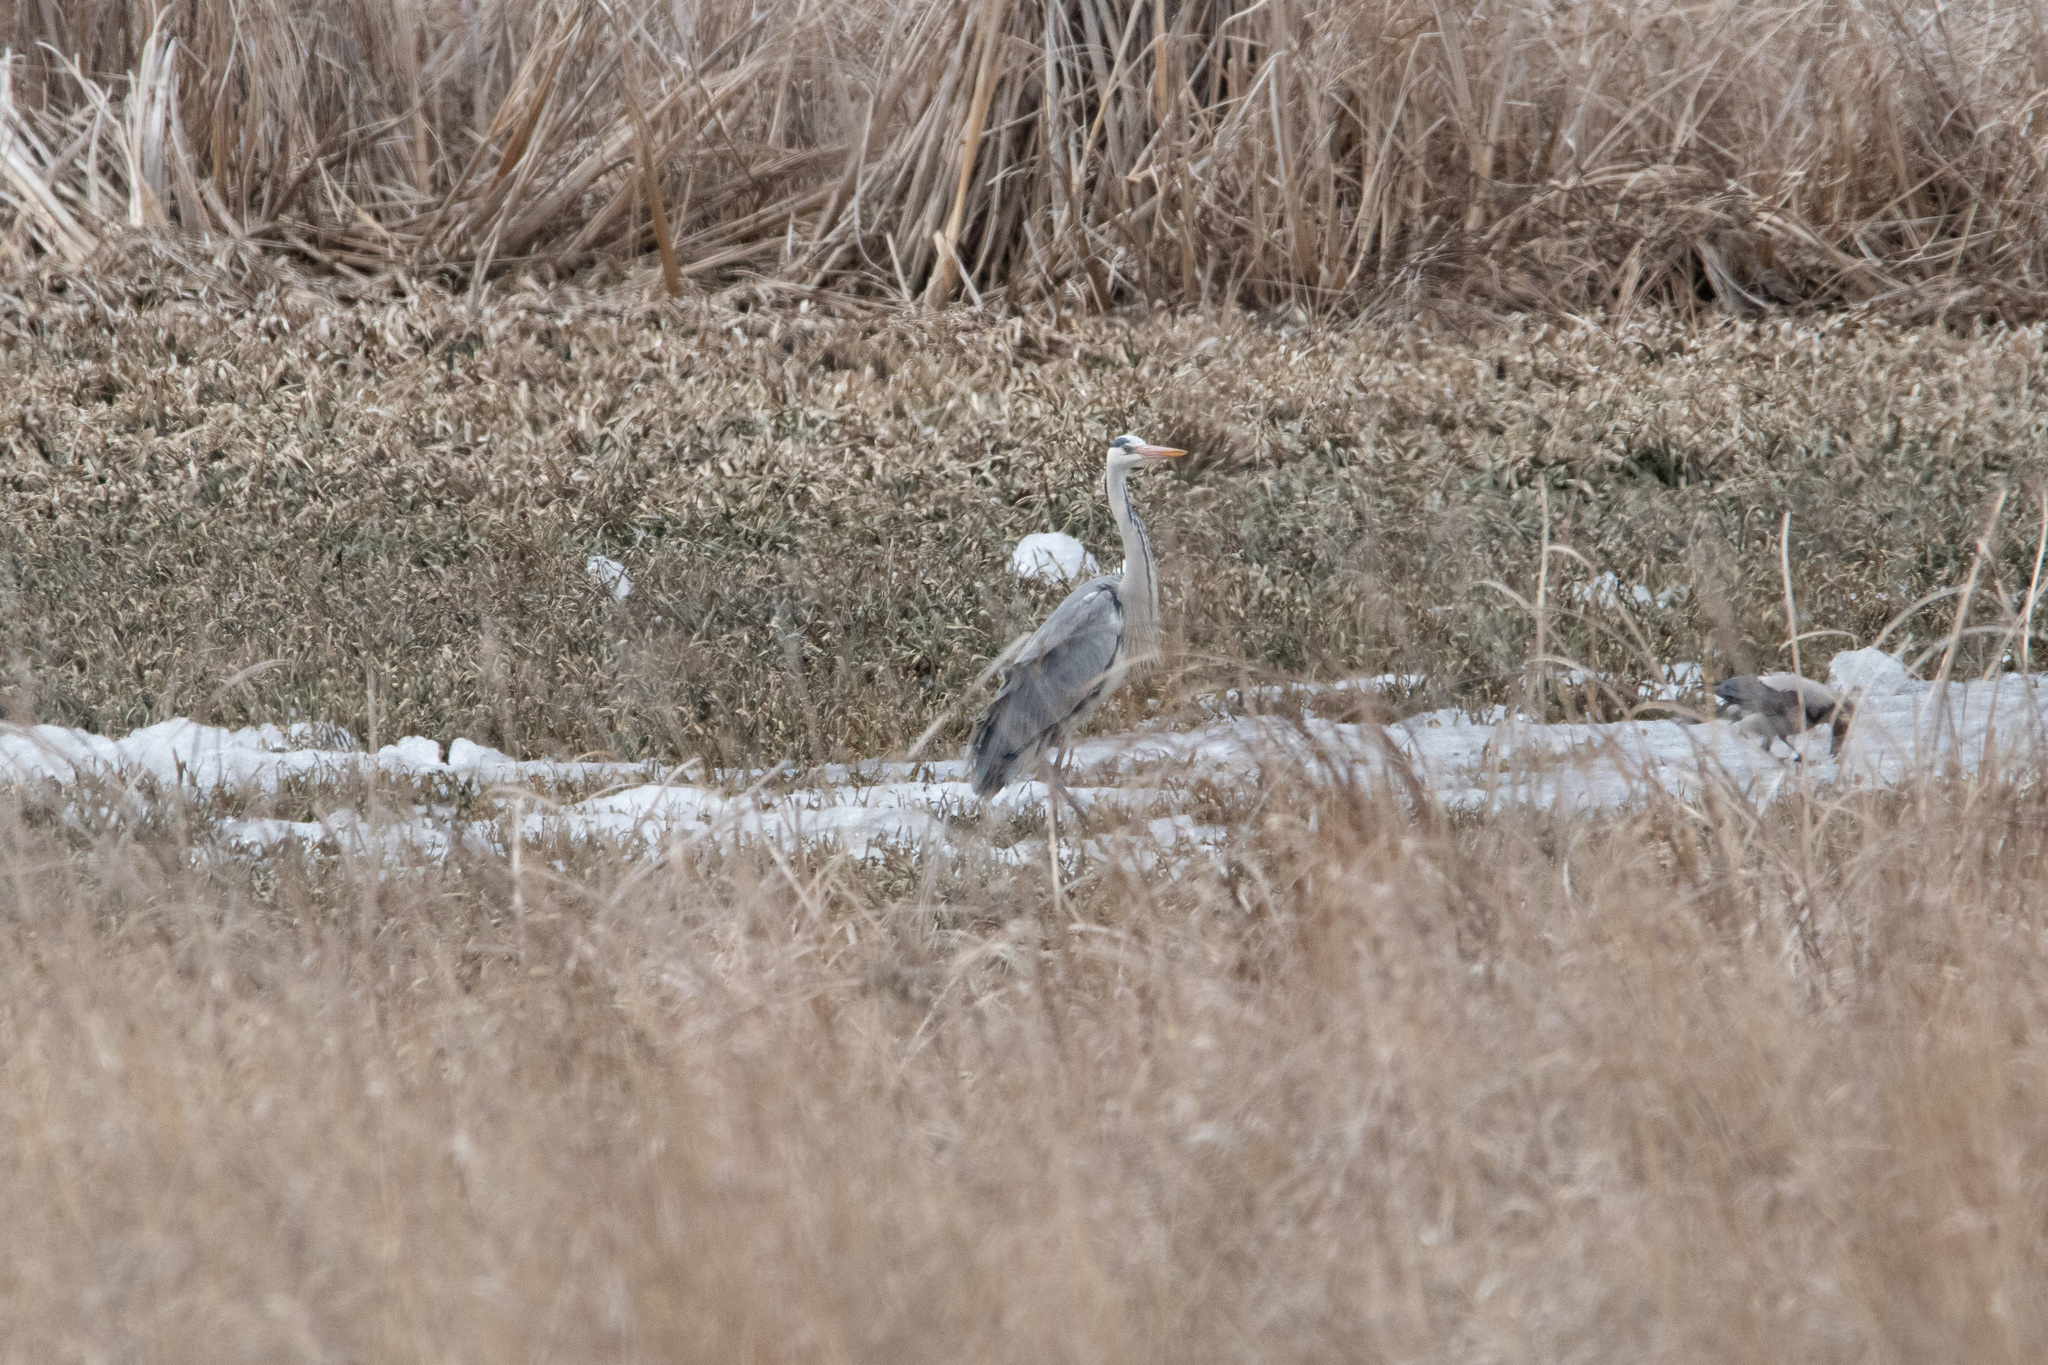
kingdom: Animalia
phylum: Chordata
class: Aves
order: Pelecaniformes
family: Ardeidae
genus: Ardea
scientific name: Ardea cinerea
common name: Grey heron
